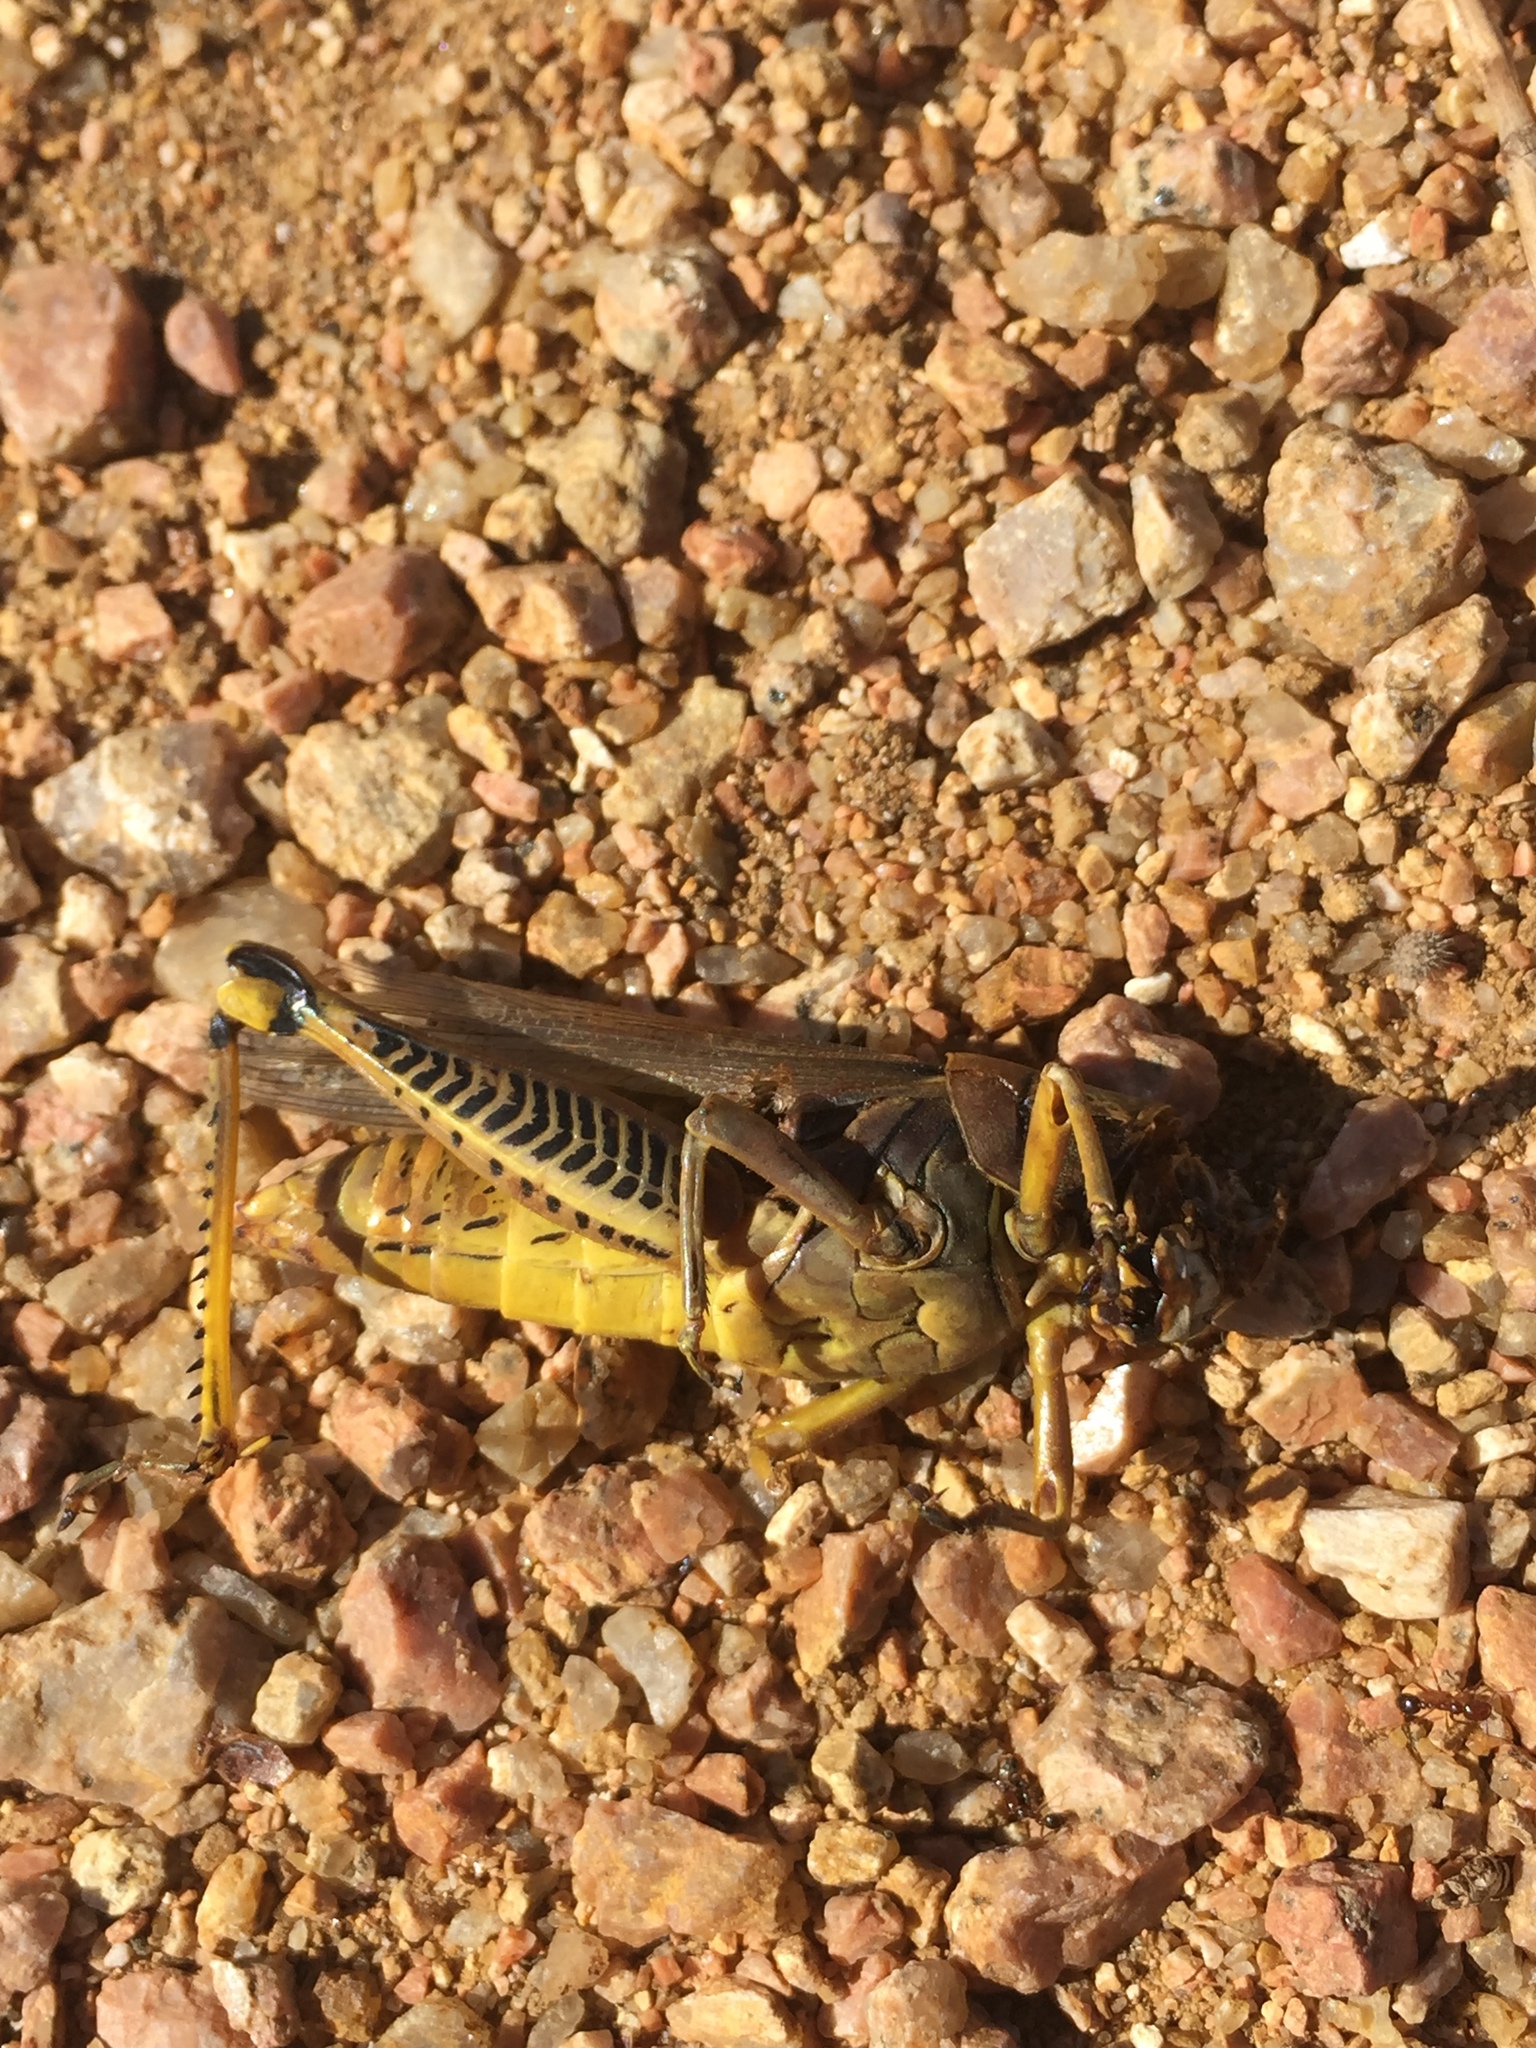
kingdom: Animalia
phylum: Arthropoda
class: Insecta
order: Orthoptera
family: Acrididae
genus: Melanoplus
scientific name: Melanoplus differentialis
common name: Differential grasshopper
